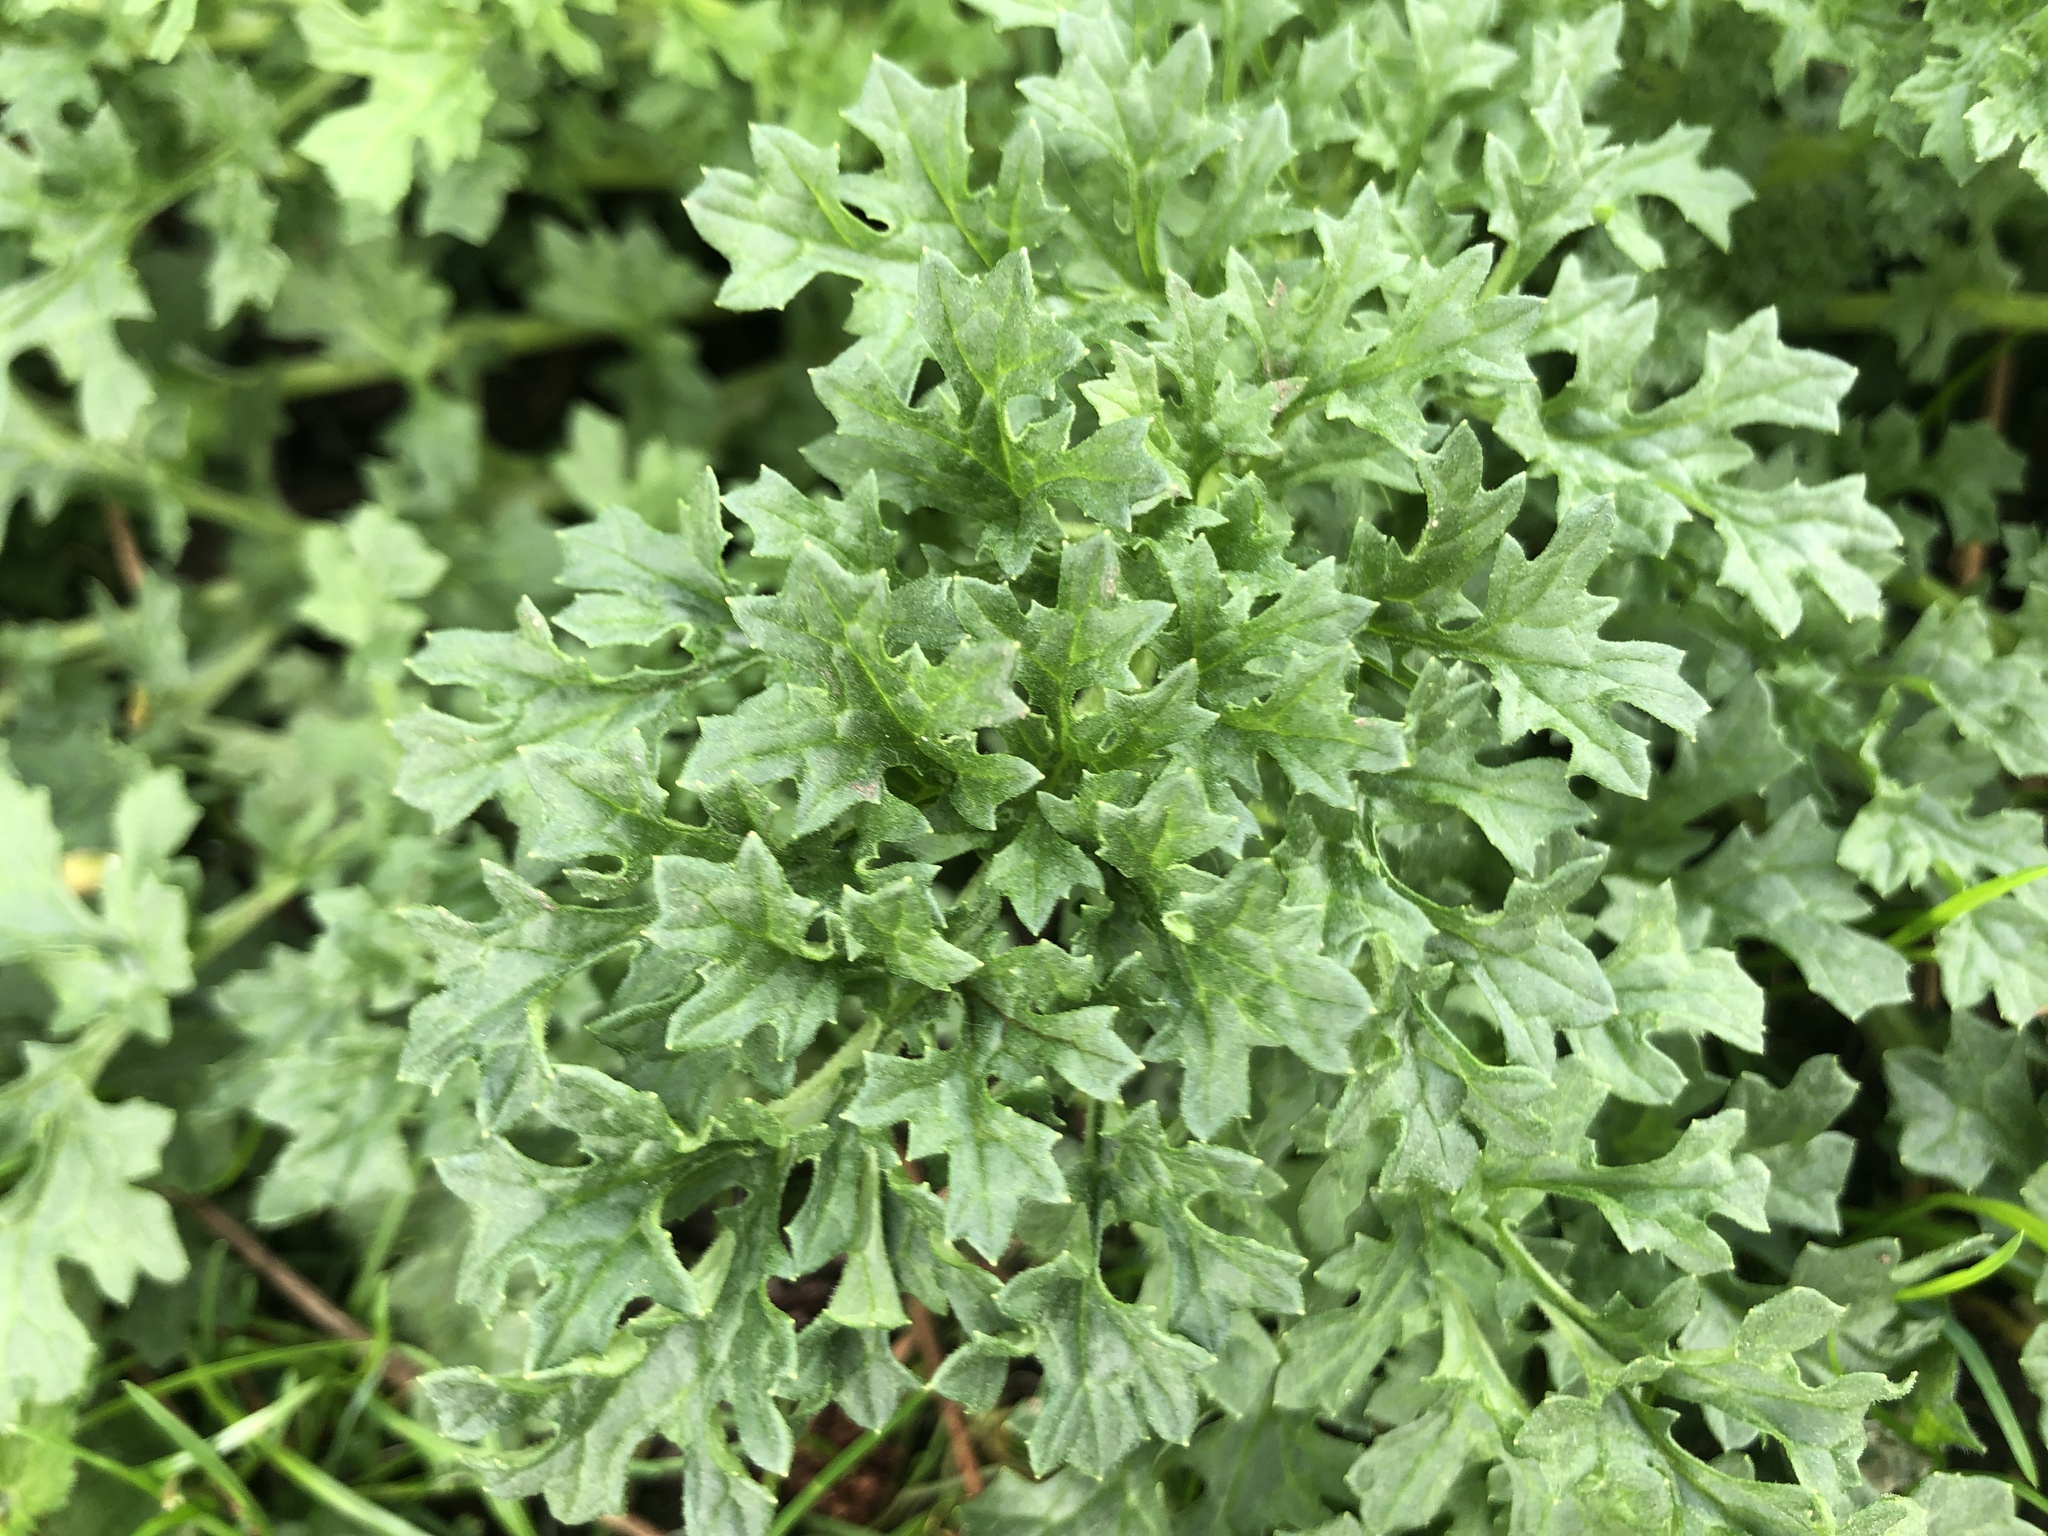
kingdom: Plantae
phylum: Tracheophyta
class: Magnoliopsida
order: Asterales
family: Asteraceae
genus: Jacobaea
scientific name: Jacobaea vulgaris
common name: Stinking willie
